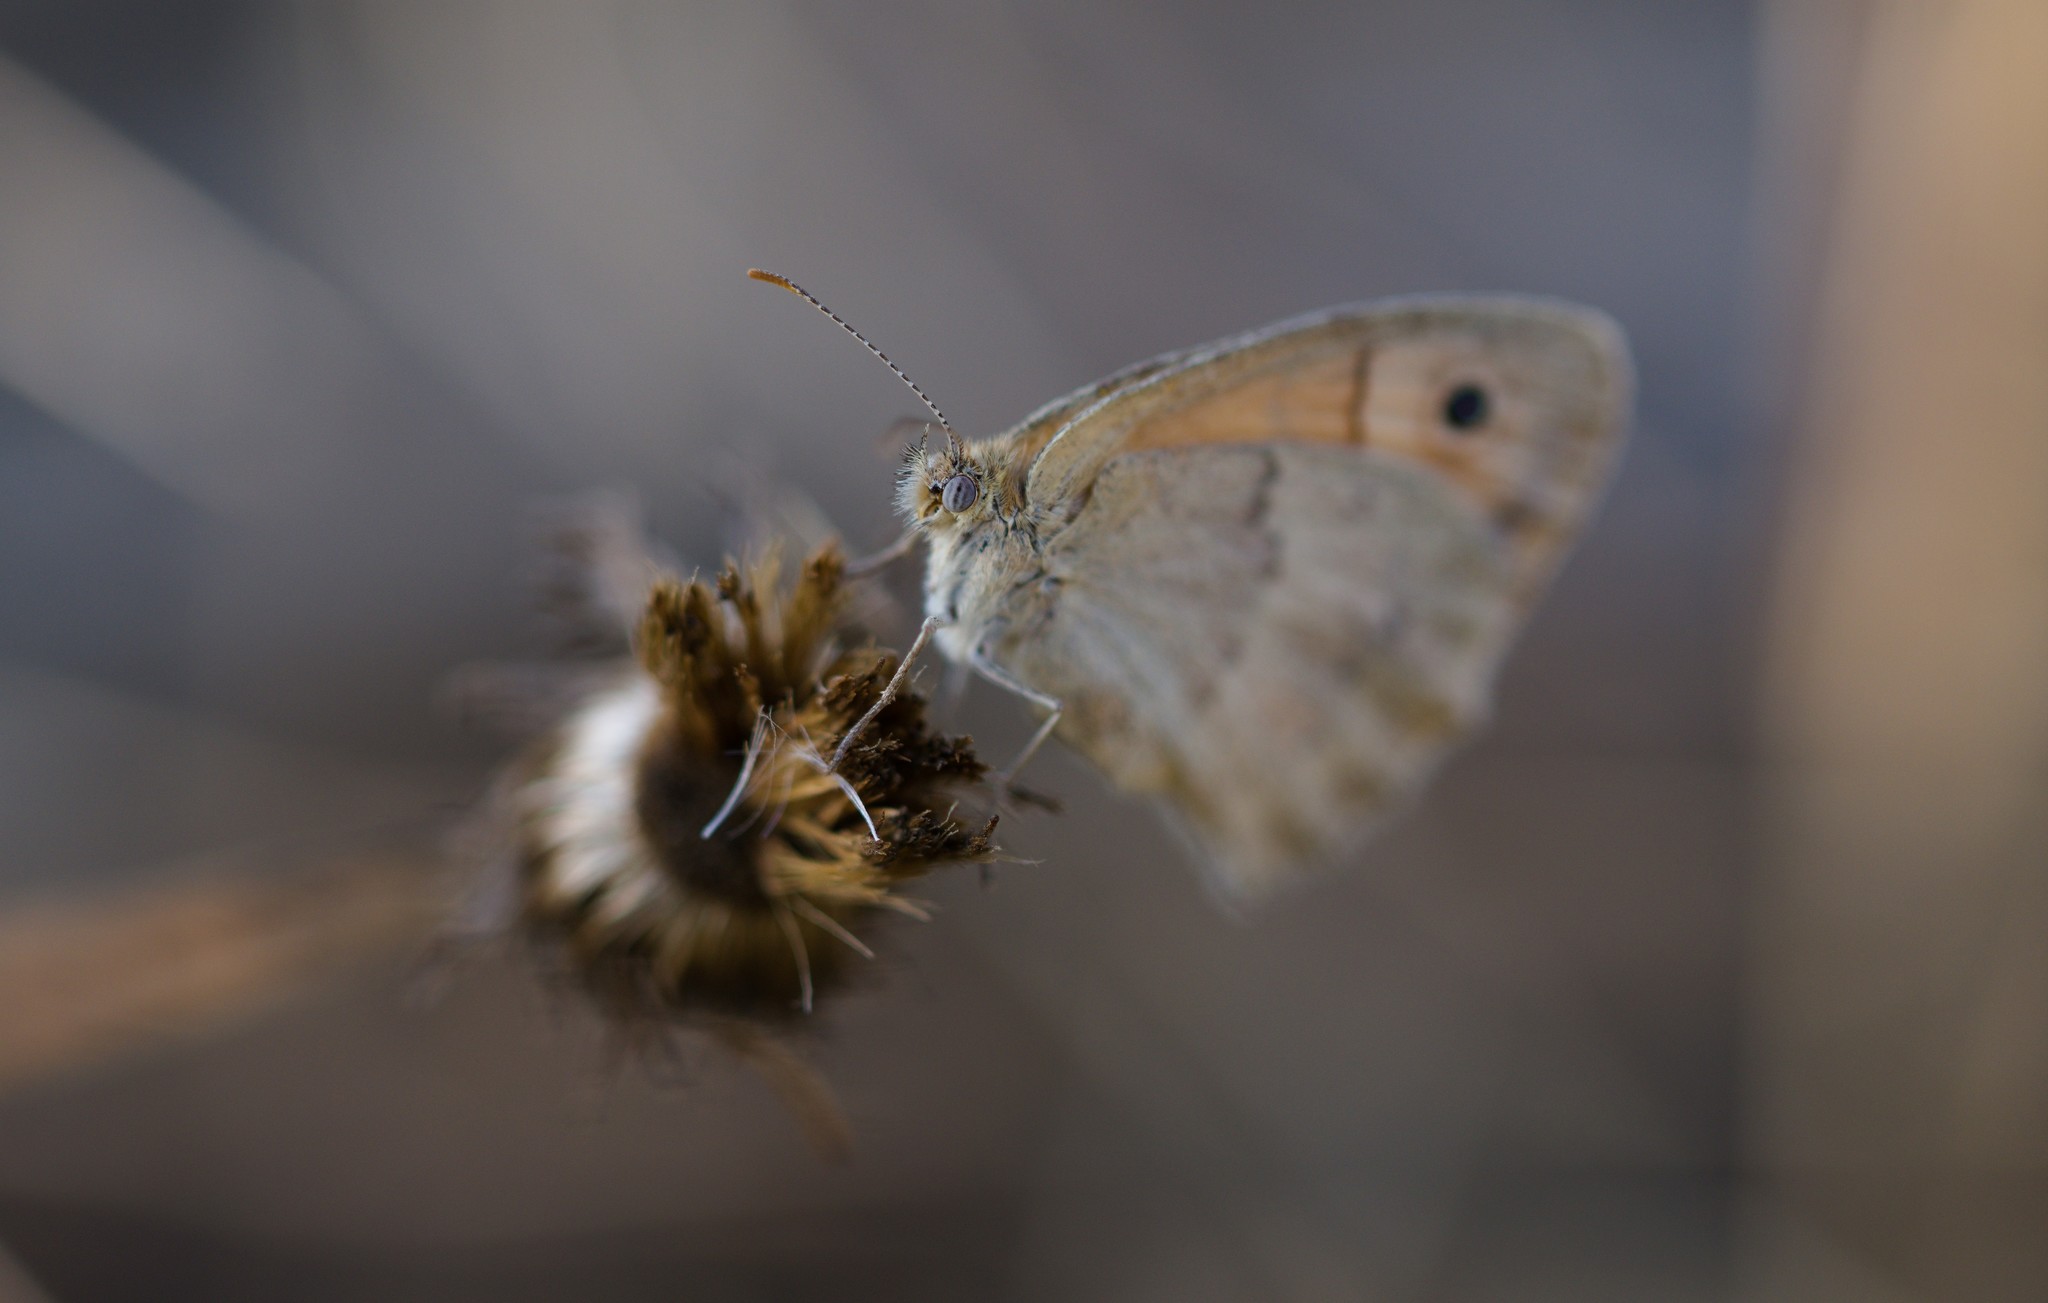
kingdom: Animalia
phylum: Arthropoda
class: Insecta
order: Lepidoptera
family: Nymphalidae
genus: Coenonympha
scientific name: Coenonympha pamphilus
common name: Small heath
